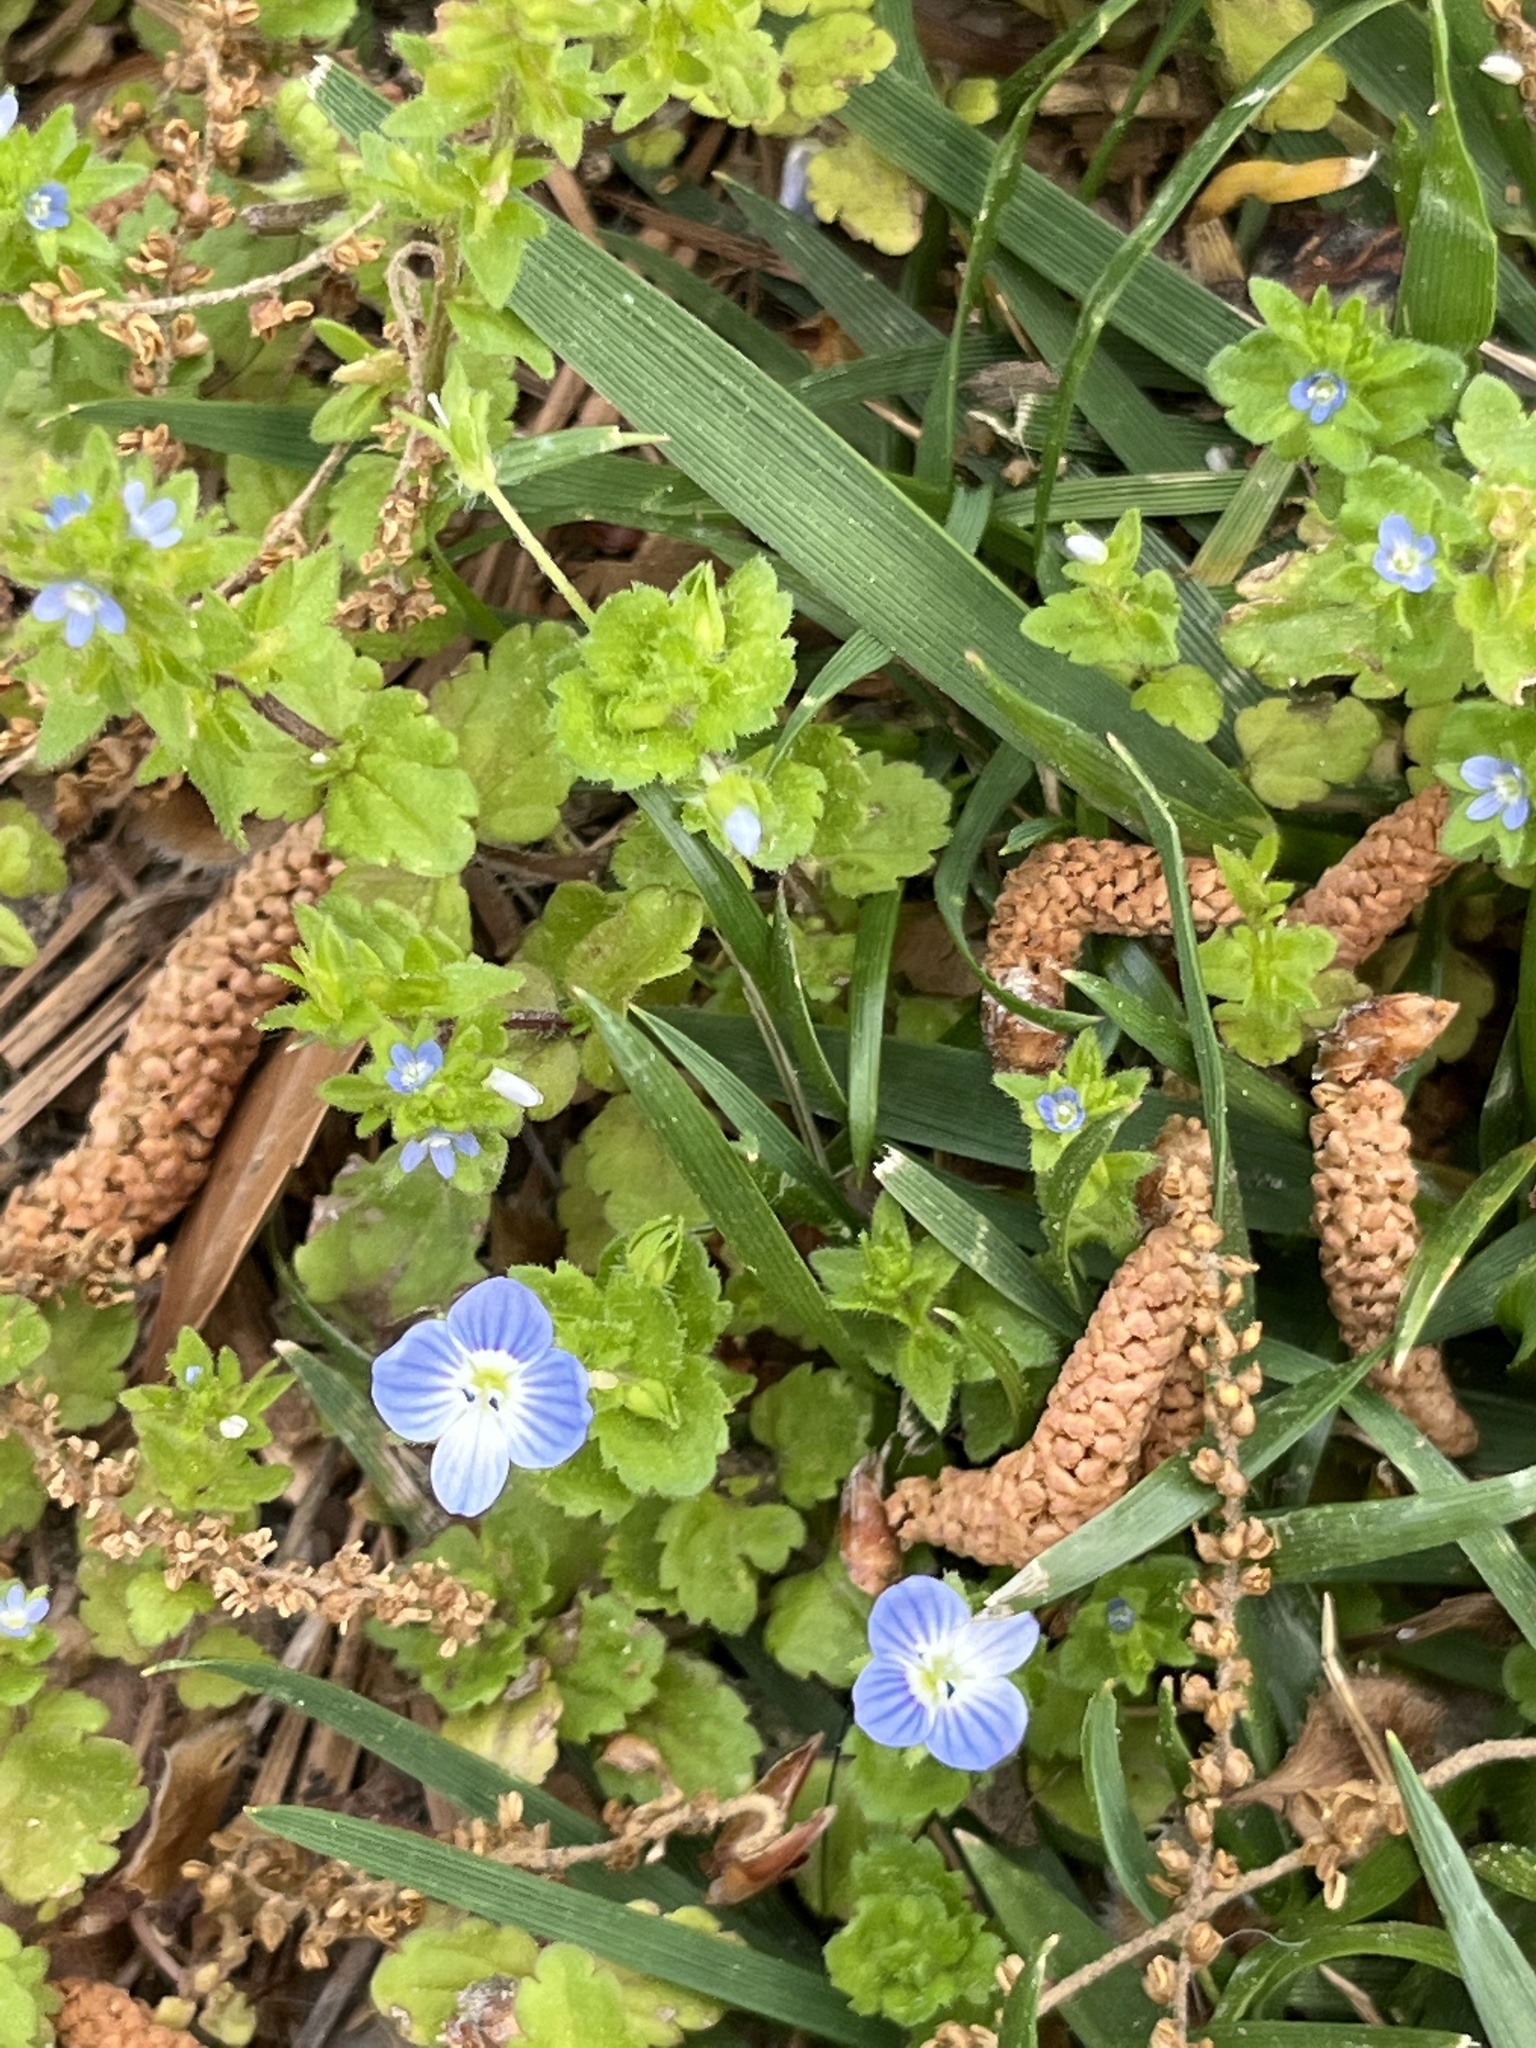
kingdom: Plantae
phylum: Tracheophyta
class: Magnoliopsida
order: Lamiales
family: Plantaginaceae
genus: Veronica
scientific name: Veronica persica
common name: Common field-speedwell
